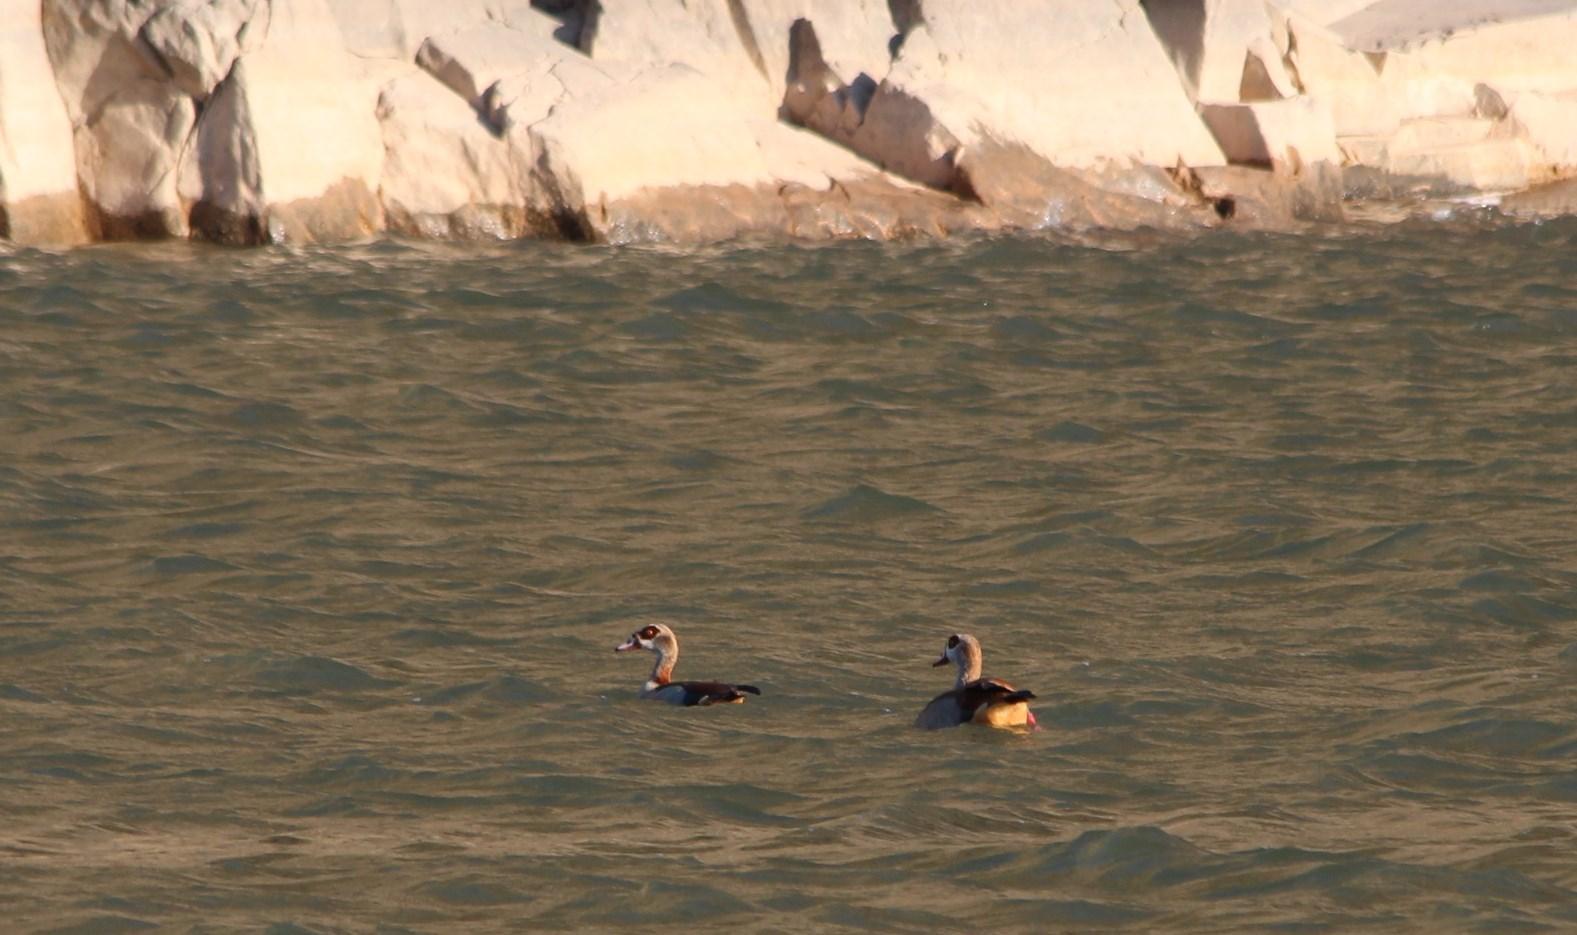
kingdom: Animalia
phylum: Chordata
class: Aves
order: Anseriformes
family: Anatidae
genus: Alopochen
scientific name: Alopochen aegyptiaca
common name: Egyptian goose
